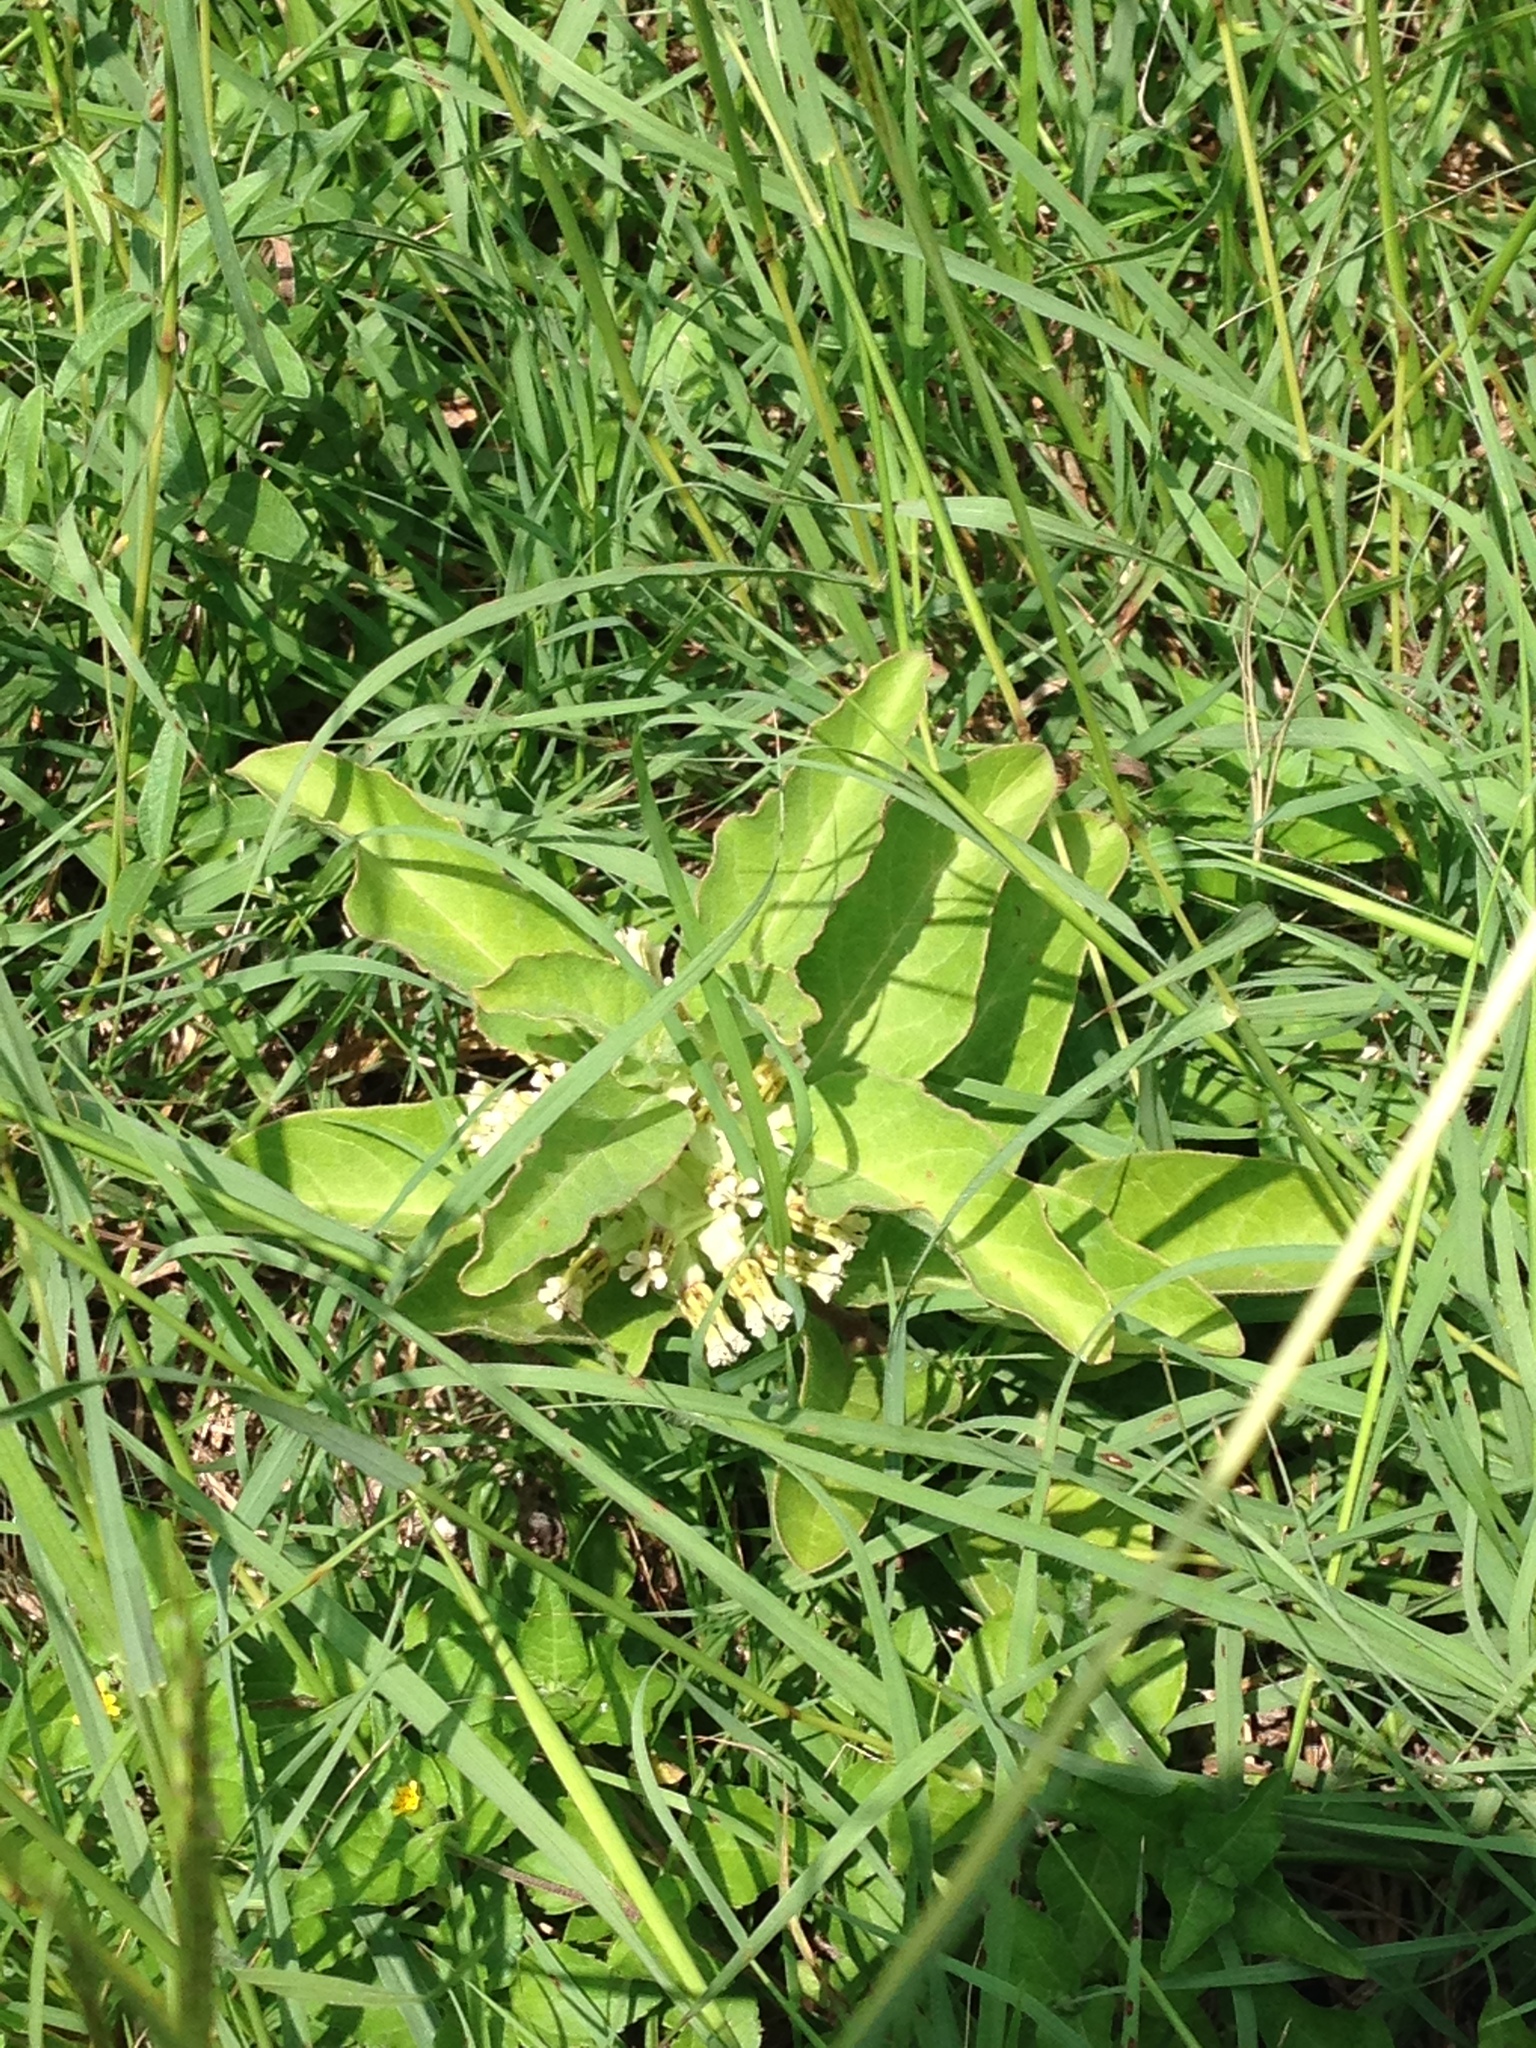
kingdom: Plantae
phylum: Tracheophyta
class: Magnoliopsida
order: Gentianales
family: Apocynaceae
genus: Asclepias
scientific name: Asclepias oenotheroides
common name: Zizotes milkweed
